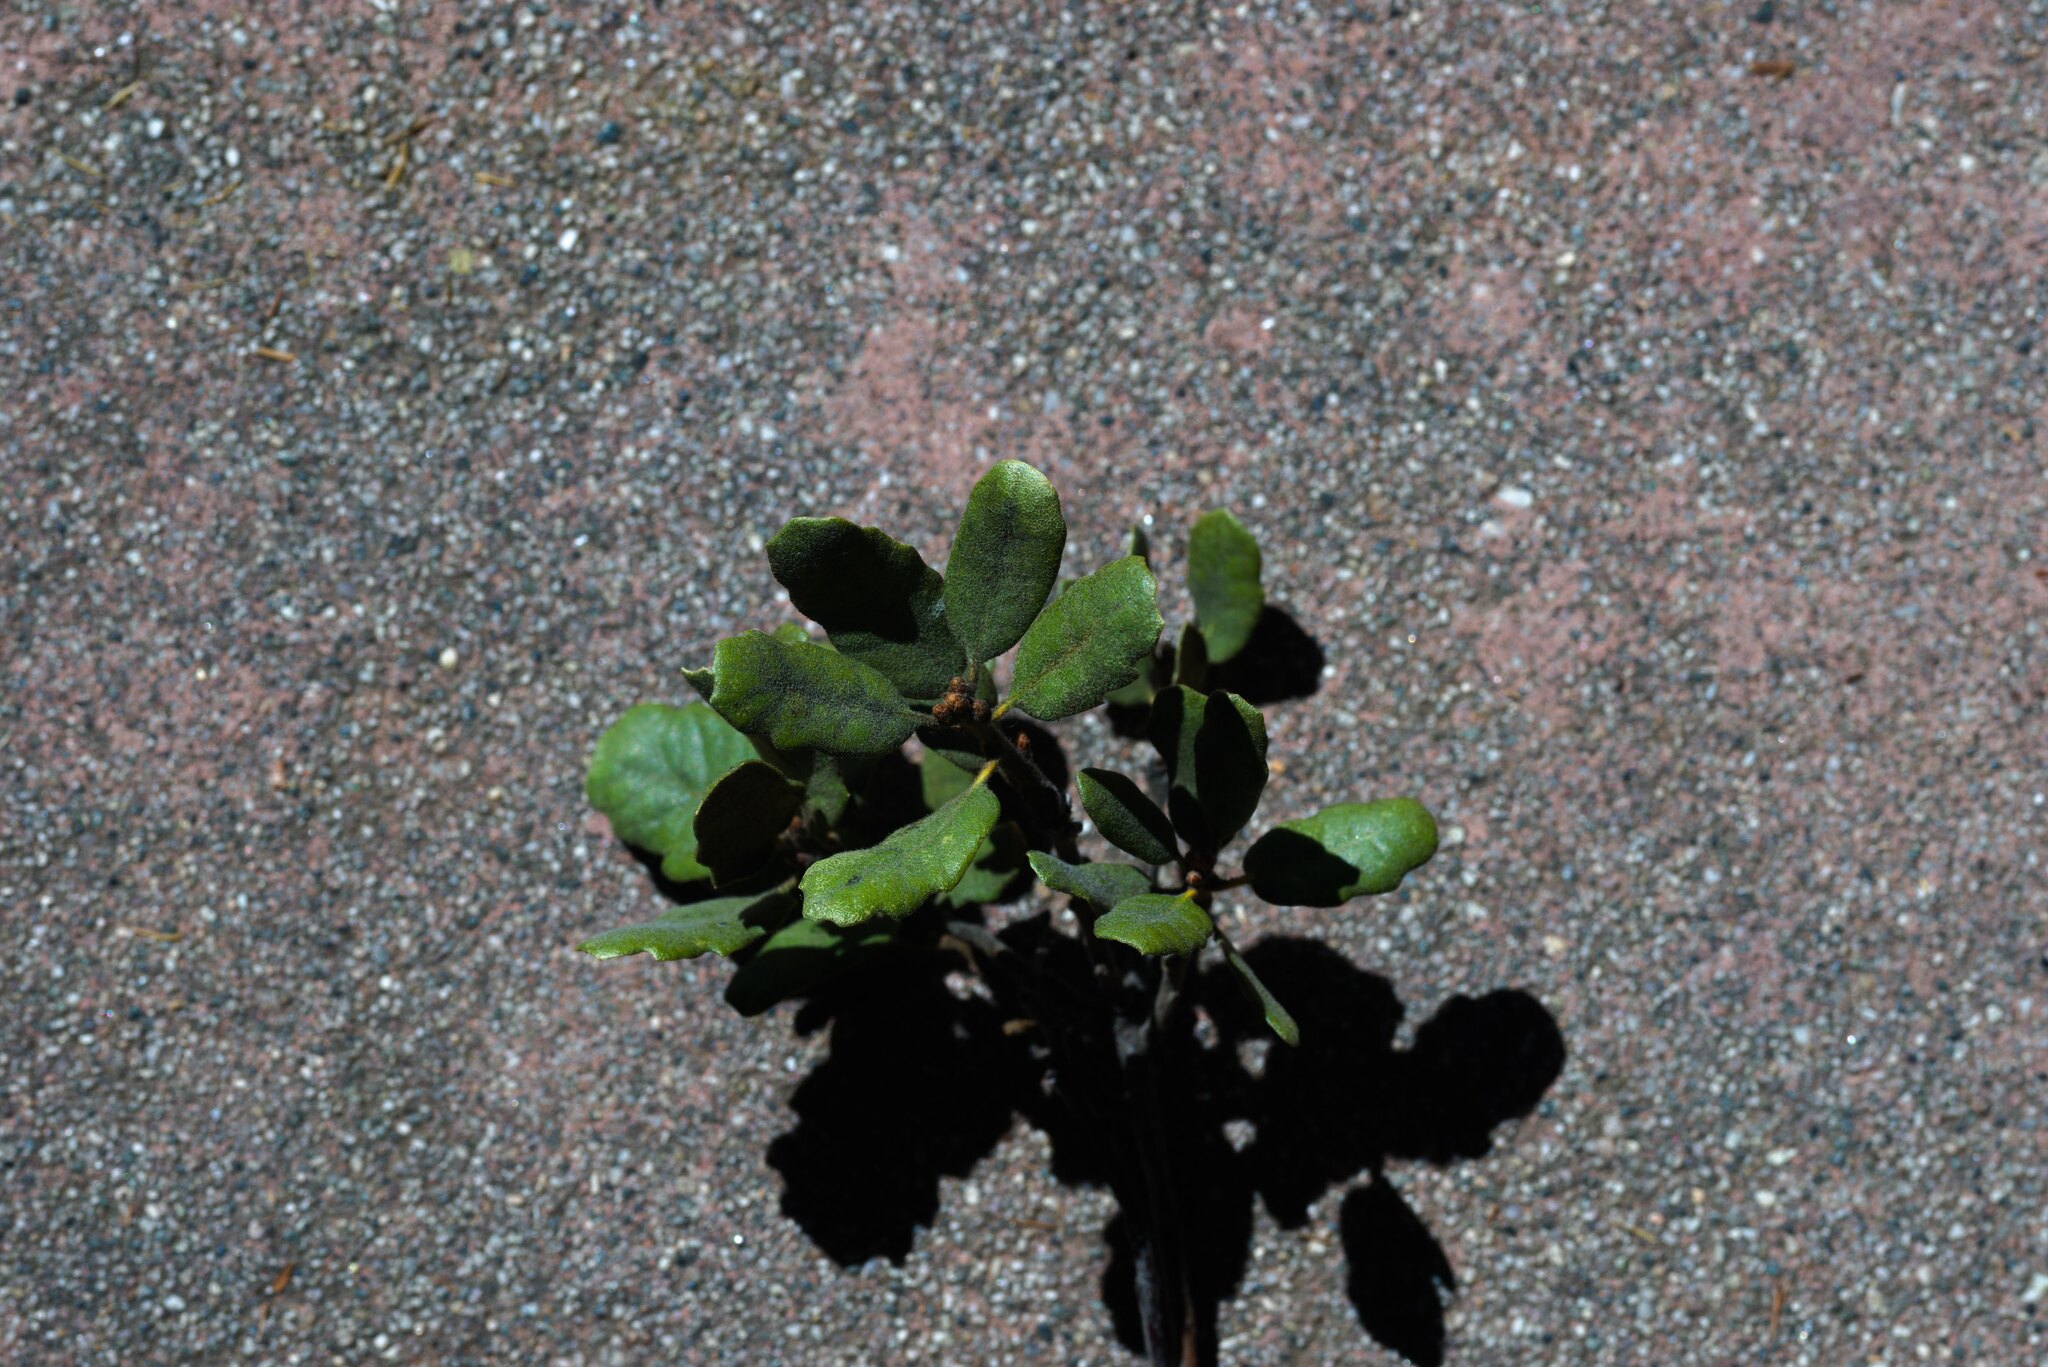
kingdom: Plantae
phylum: Tracheophyta
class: Magnoliopsida
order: Fagales
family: Fagaceae
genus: Quercus
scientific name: Quercus durata
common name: Leather oak
